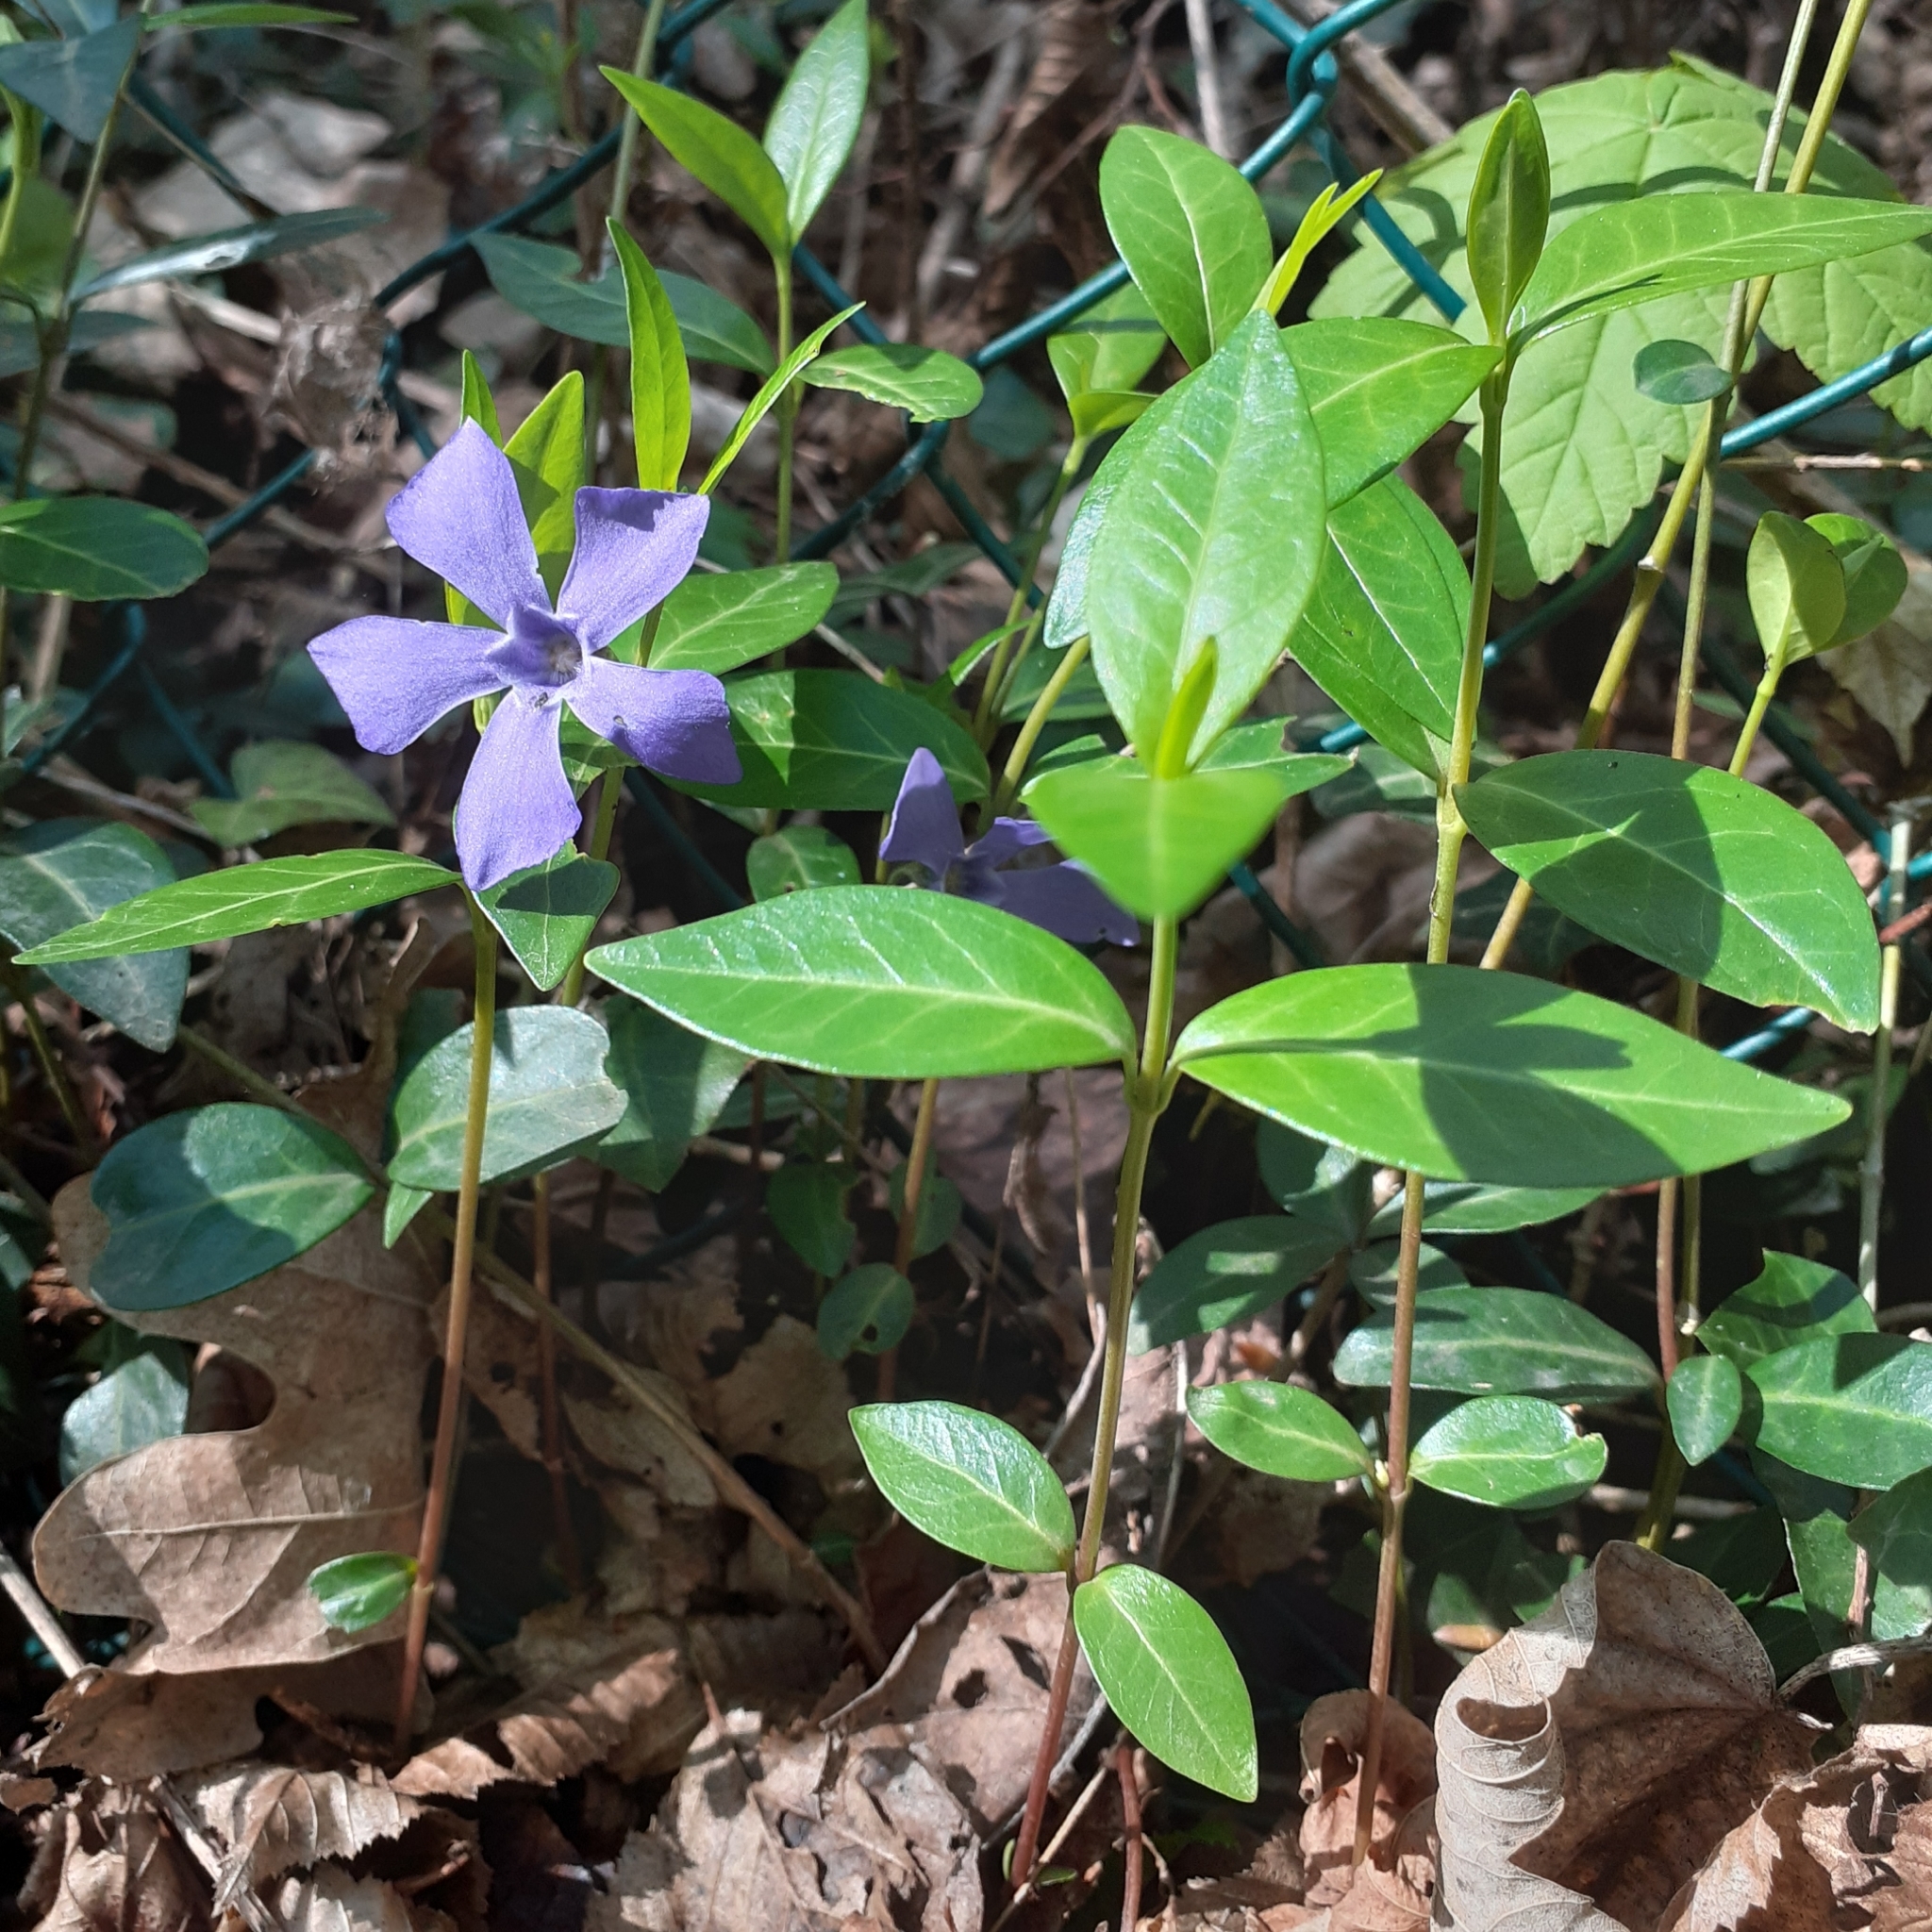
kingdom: Plantae
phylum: Tracheophyta
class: Magnoliopsida
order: Gentianales
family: Apocynaceae
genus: Vinca
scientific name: Vinca minor
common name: Lesser periwinkle
